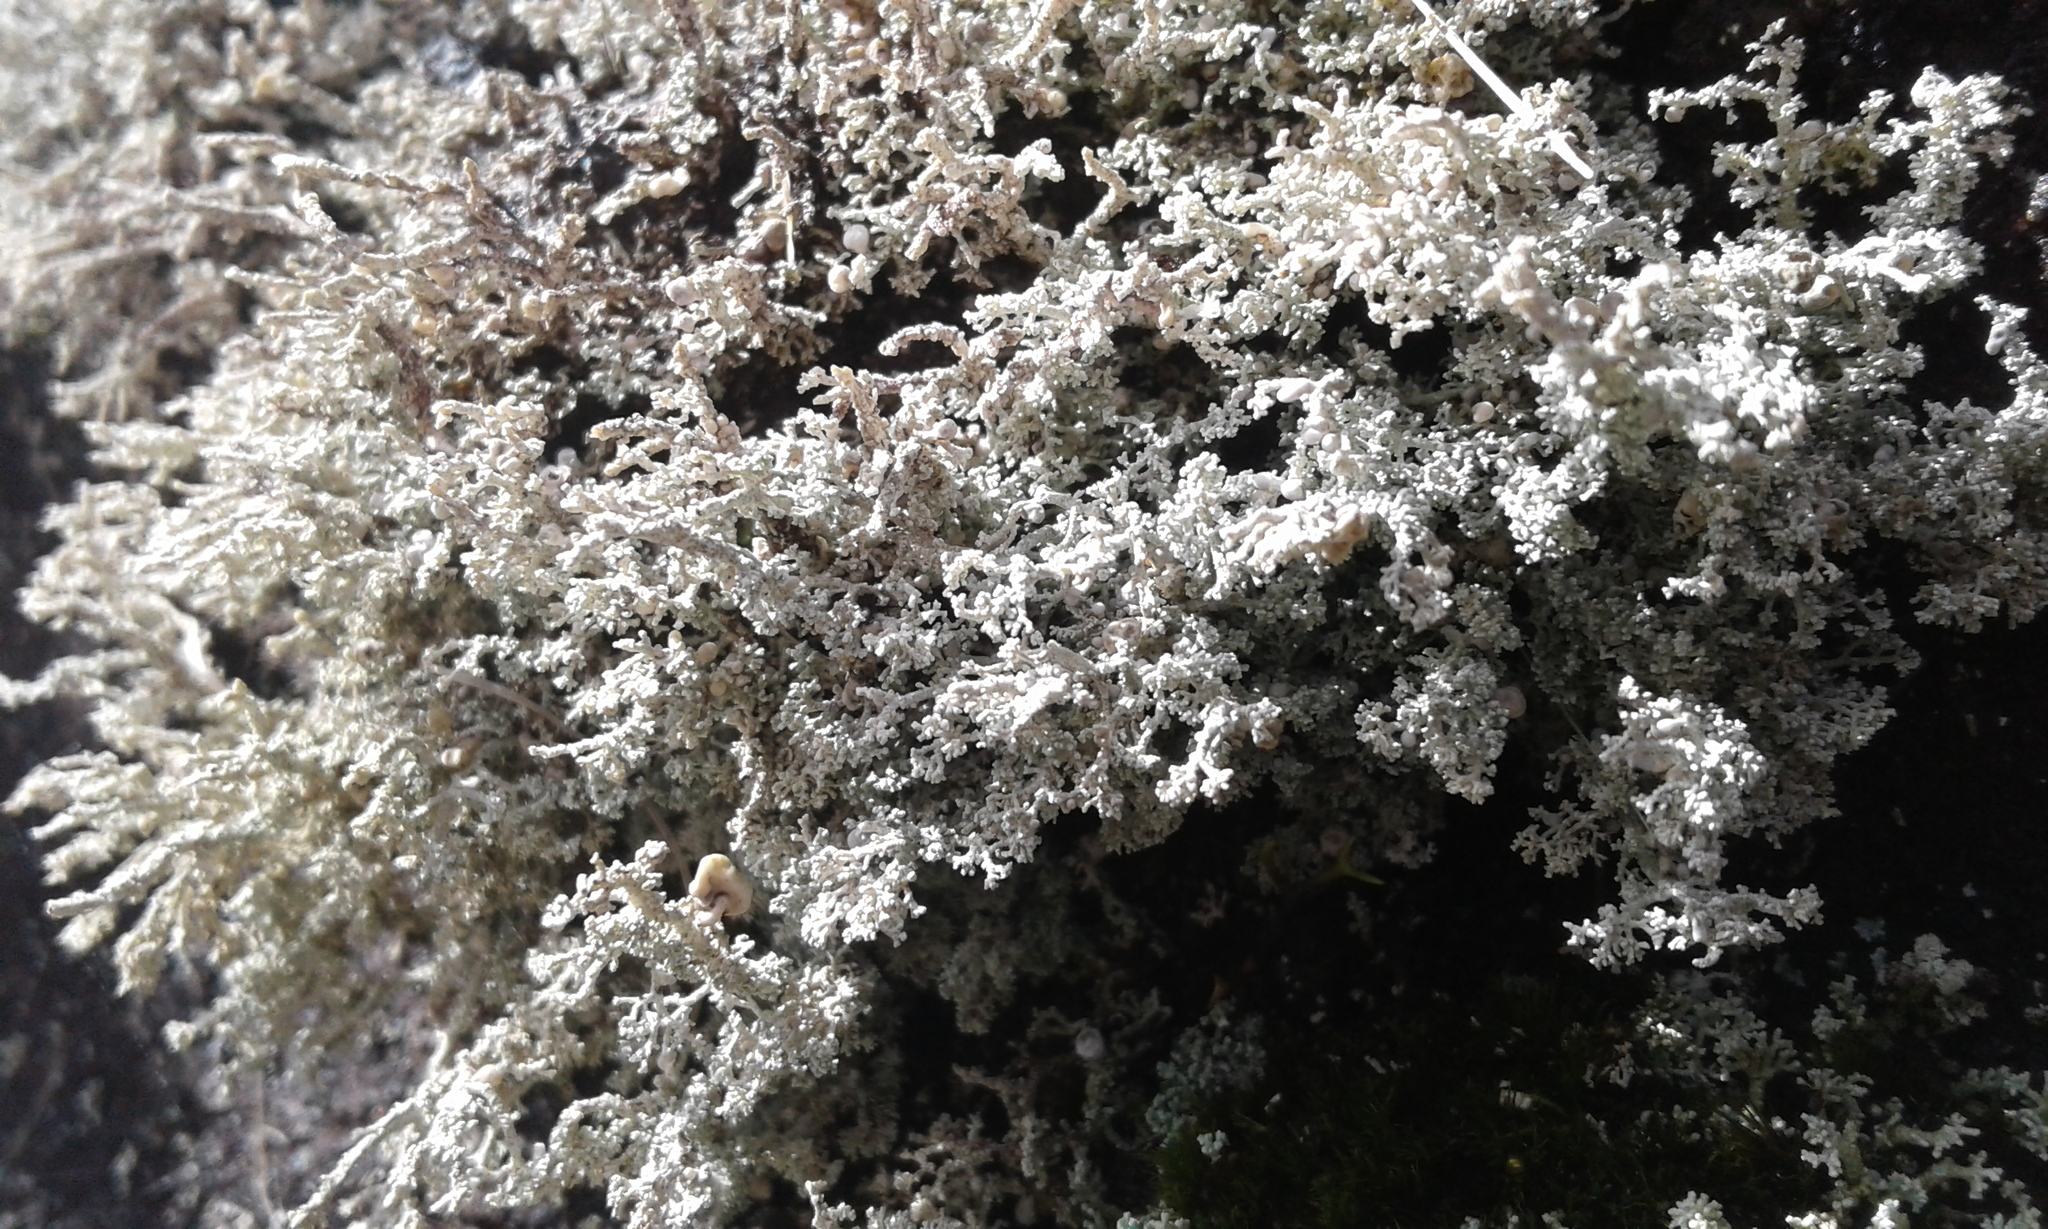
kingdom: Fungi
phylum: Ascomycota
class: Lecanoromycetes
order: Lecanorales
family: Stereocaulaceae
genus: Stereocaulon
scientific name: Stereocaulon
